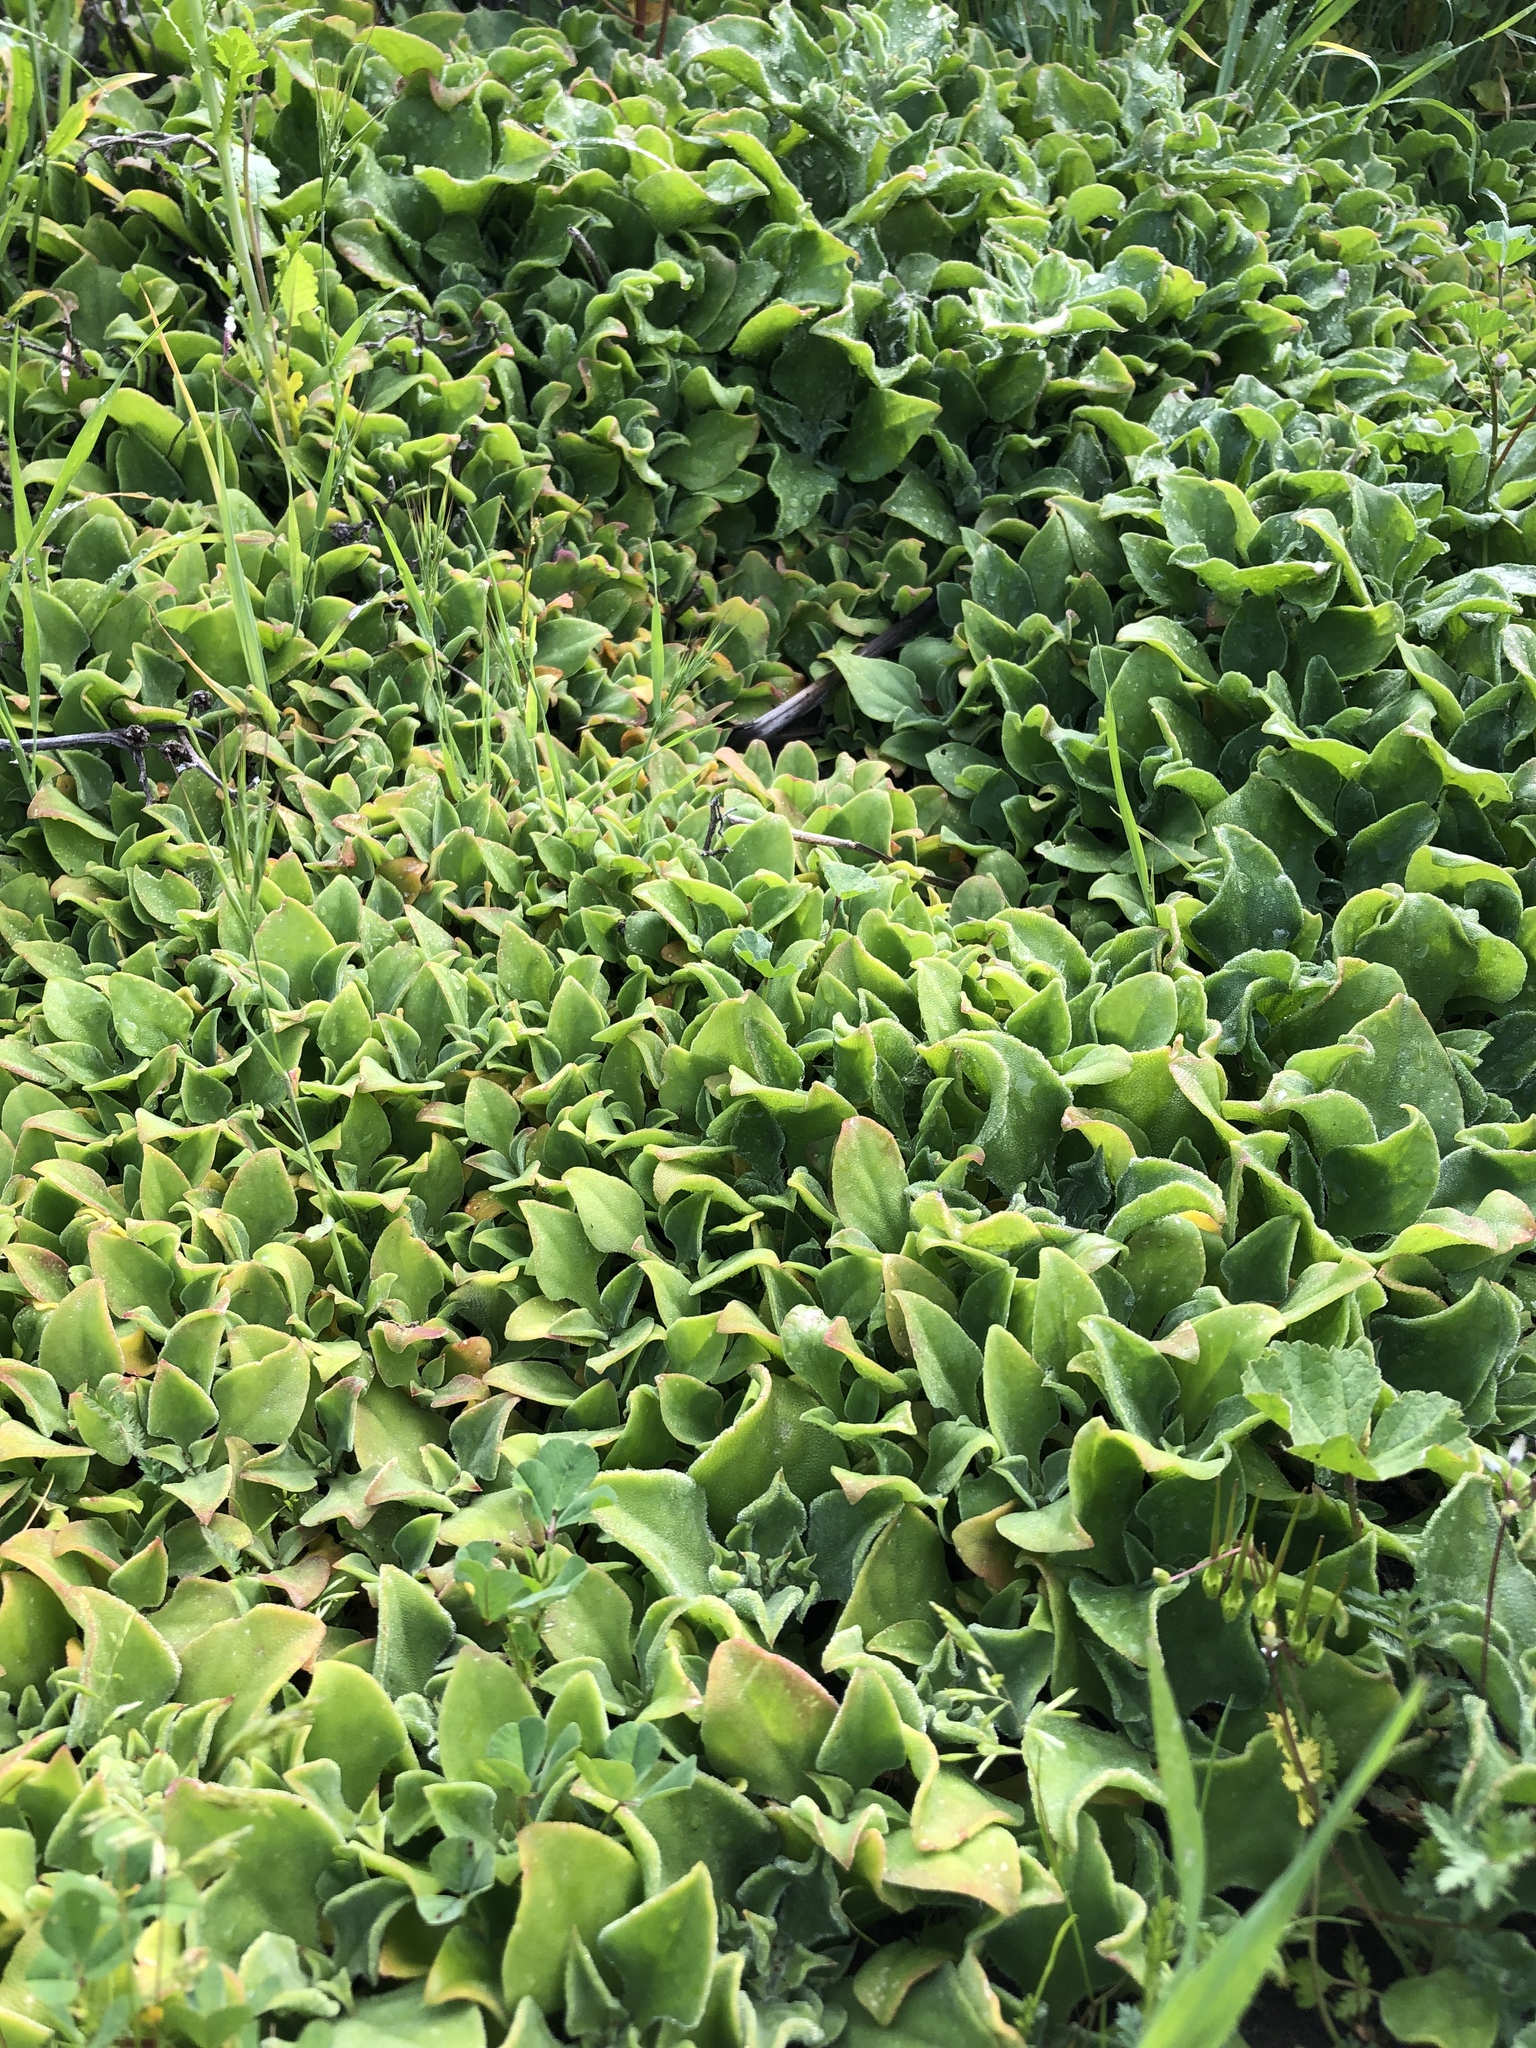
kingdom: Plantae
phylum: Tracheophyta
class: Magnoliopsida
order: Caryophyllales
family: Aizoaceae
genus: Mesembryanthemum
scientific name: Mesembryanthemum crystallinum
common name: Common iceplant
